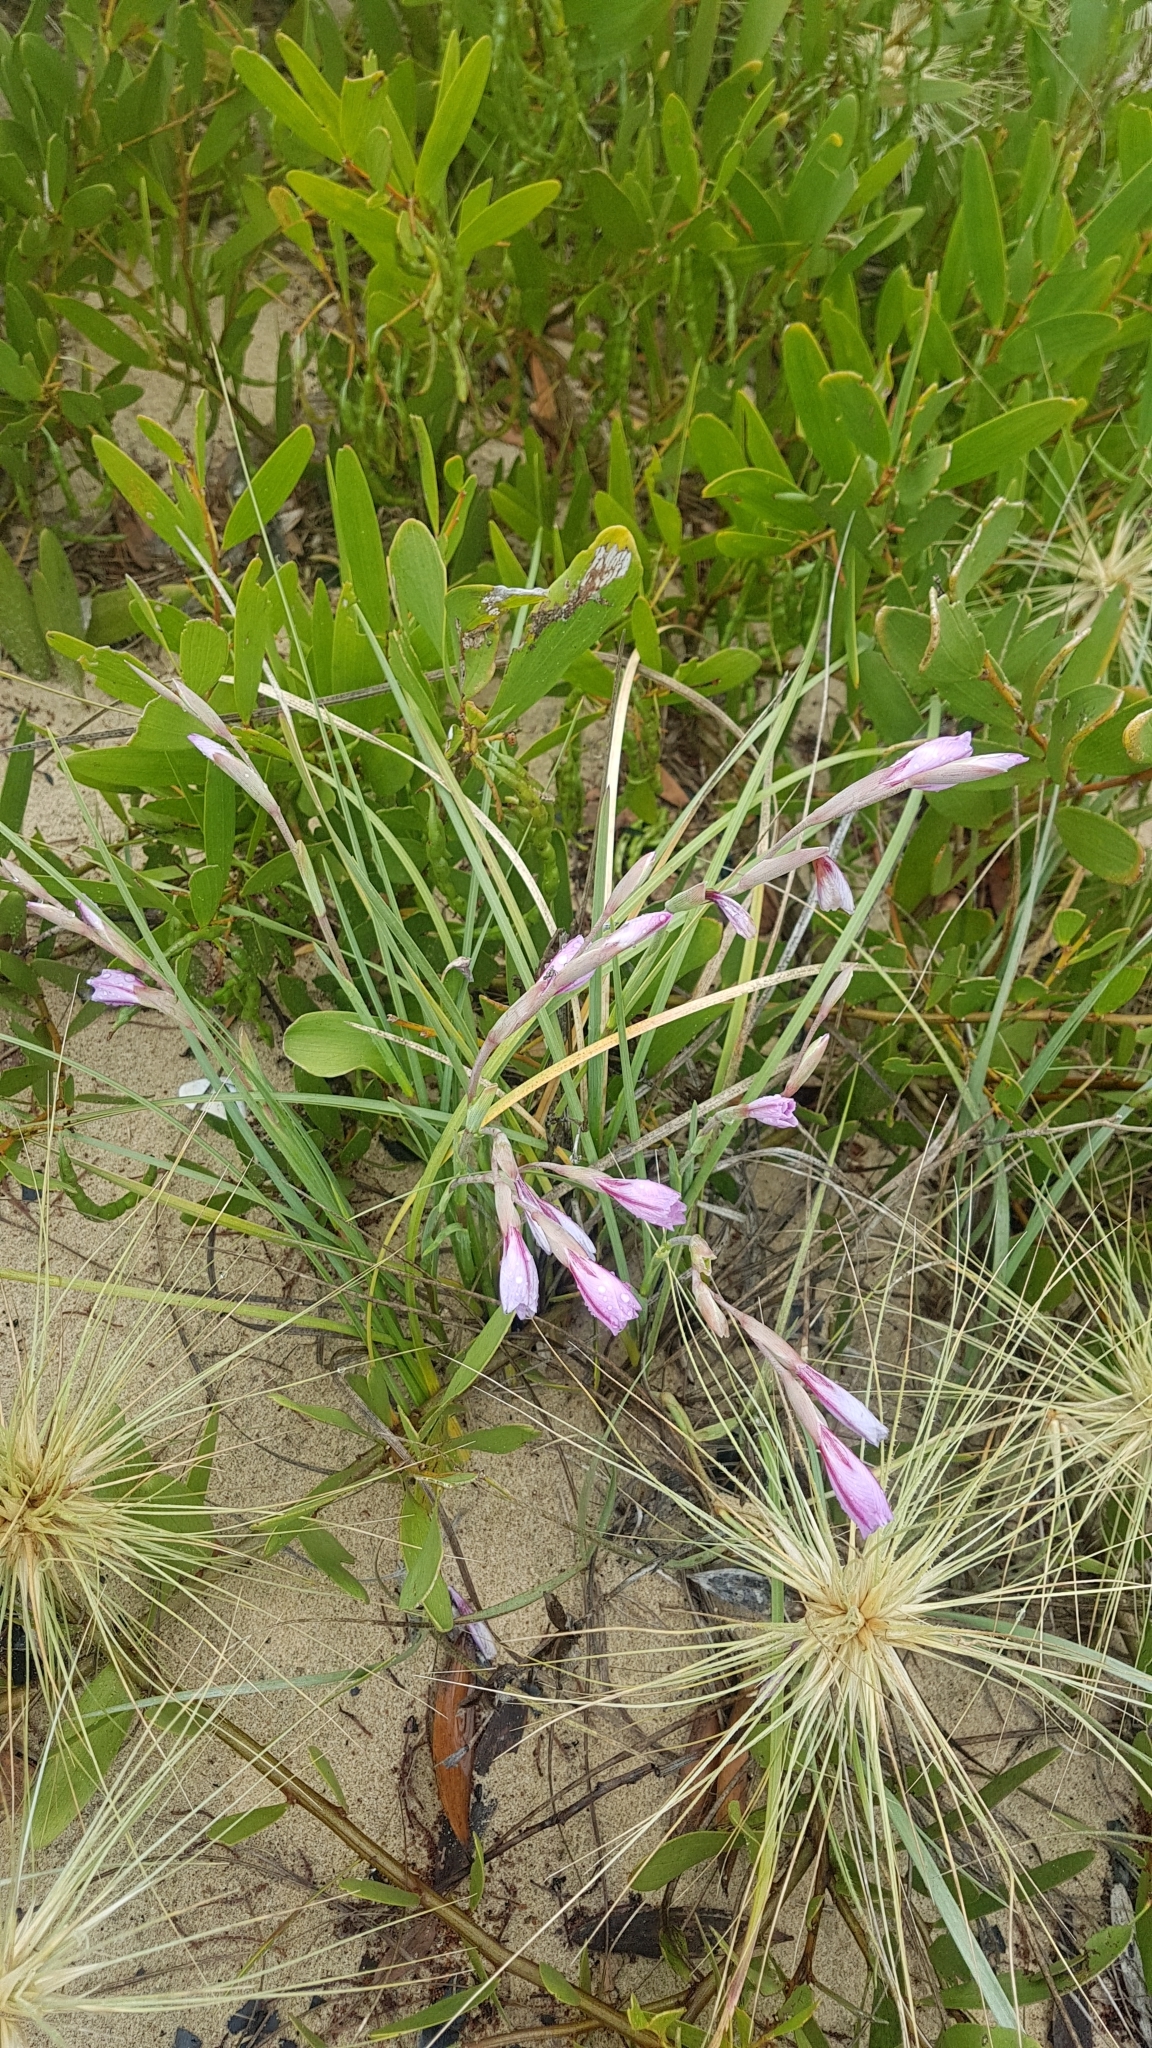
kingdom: Plantae
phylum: Tracheophyta
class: Liliopsida
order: Asparagales
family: Iridaceae
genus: Gladiolus
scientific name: Gladiolus gueinzii
